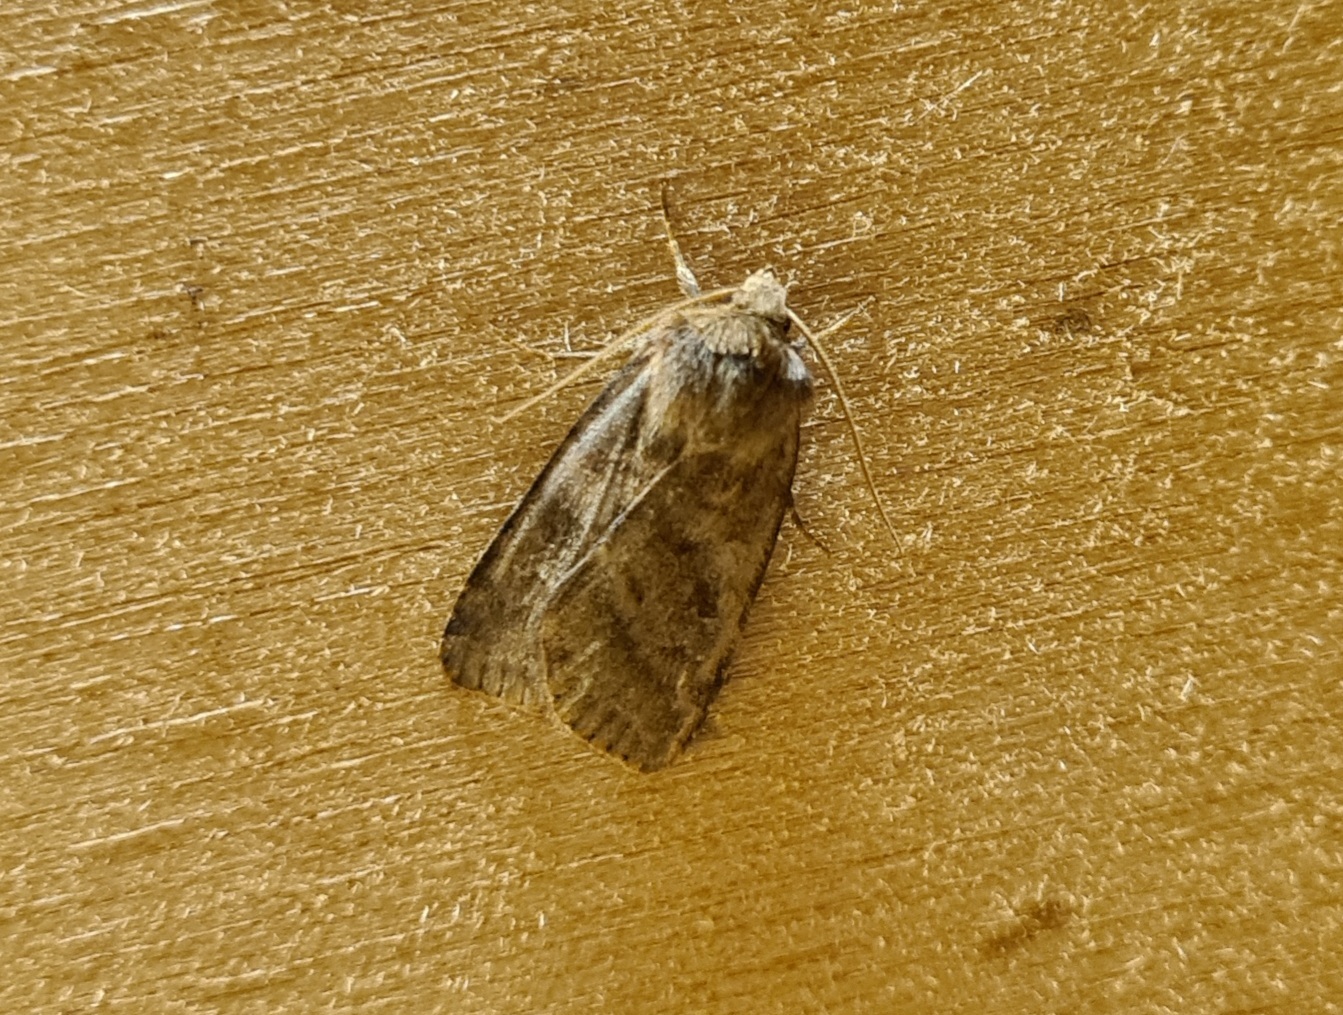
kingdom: Animalia
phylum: Arthropoda
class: Insecta
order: Lepidoptera
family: Noctuidae
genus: Diarsia
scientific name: Diarsia rubi
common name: Small square-spot
